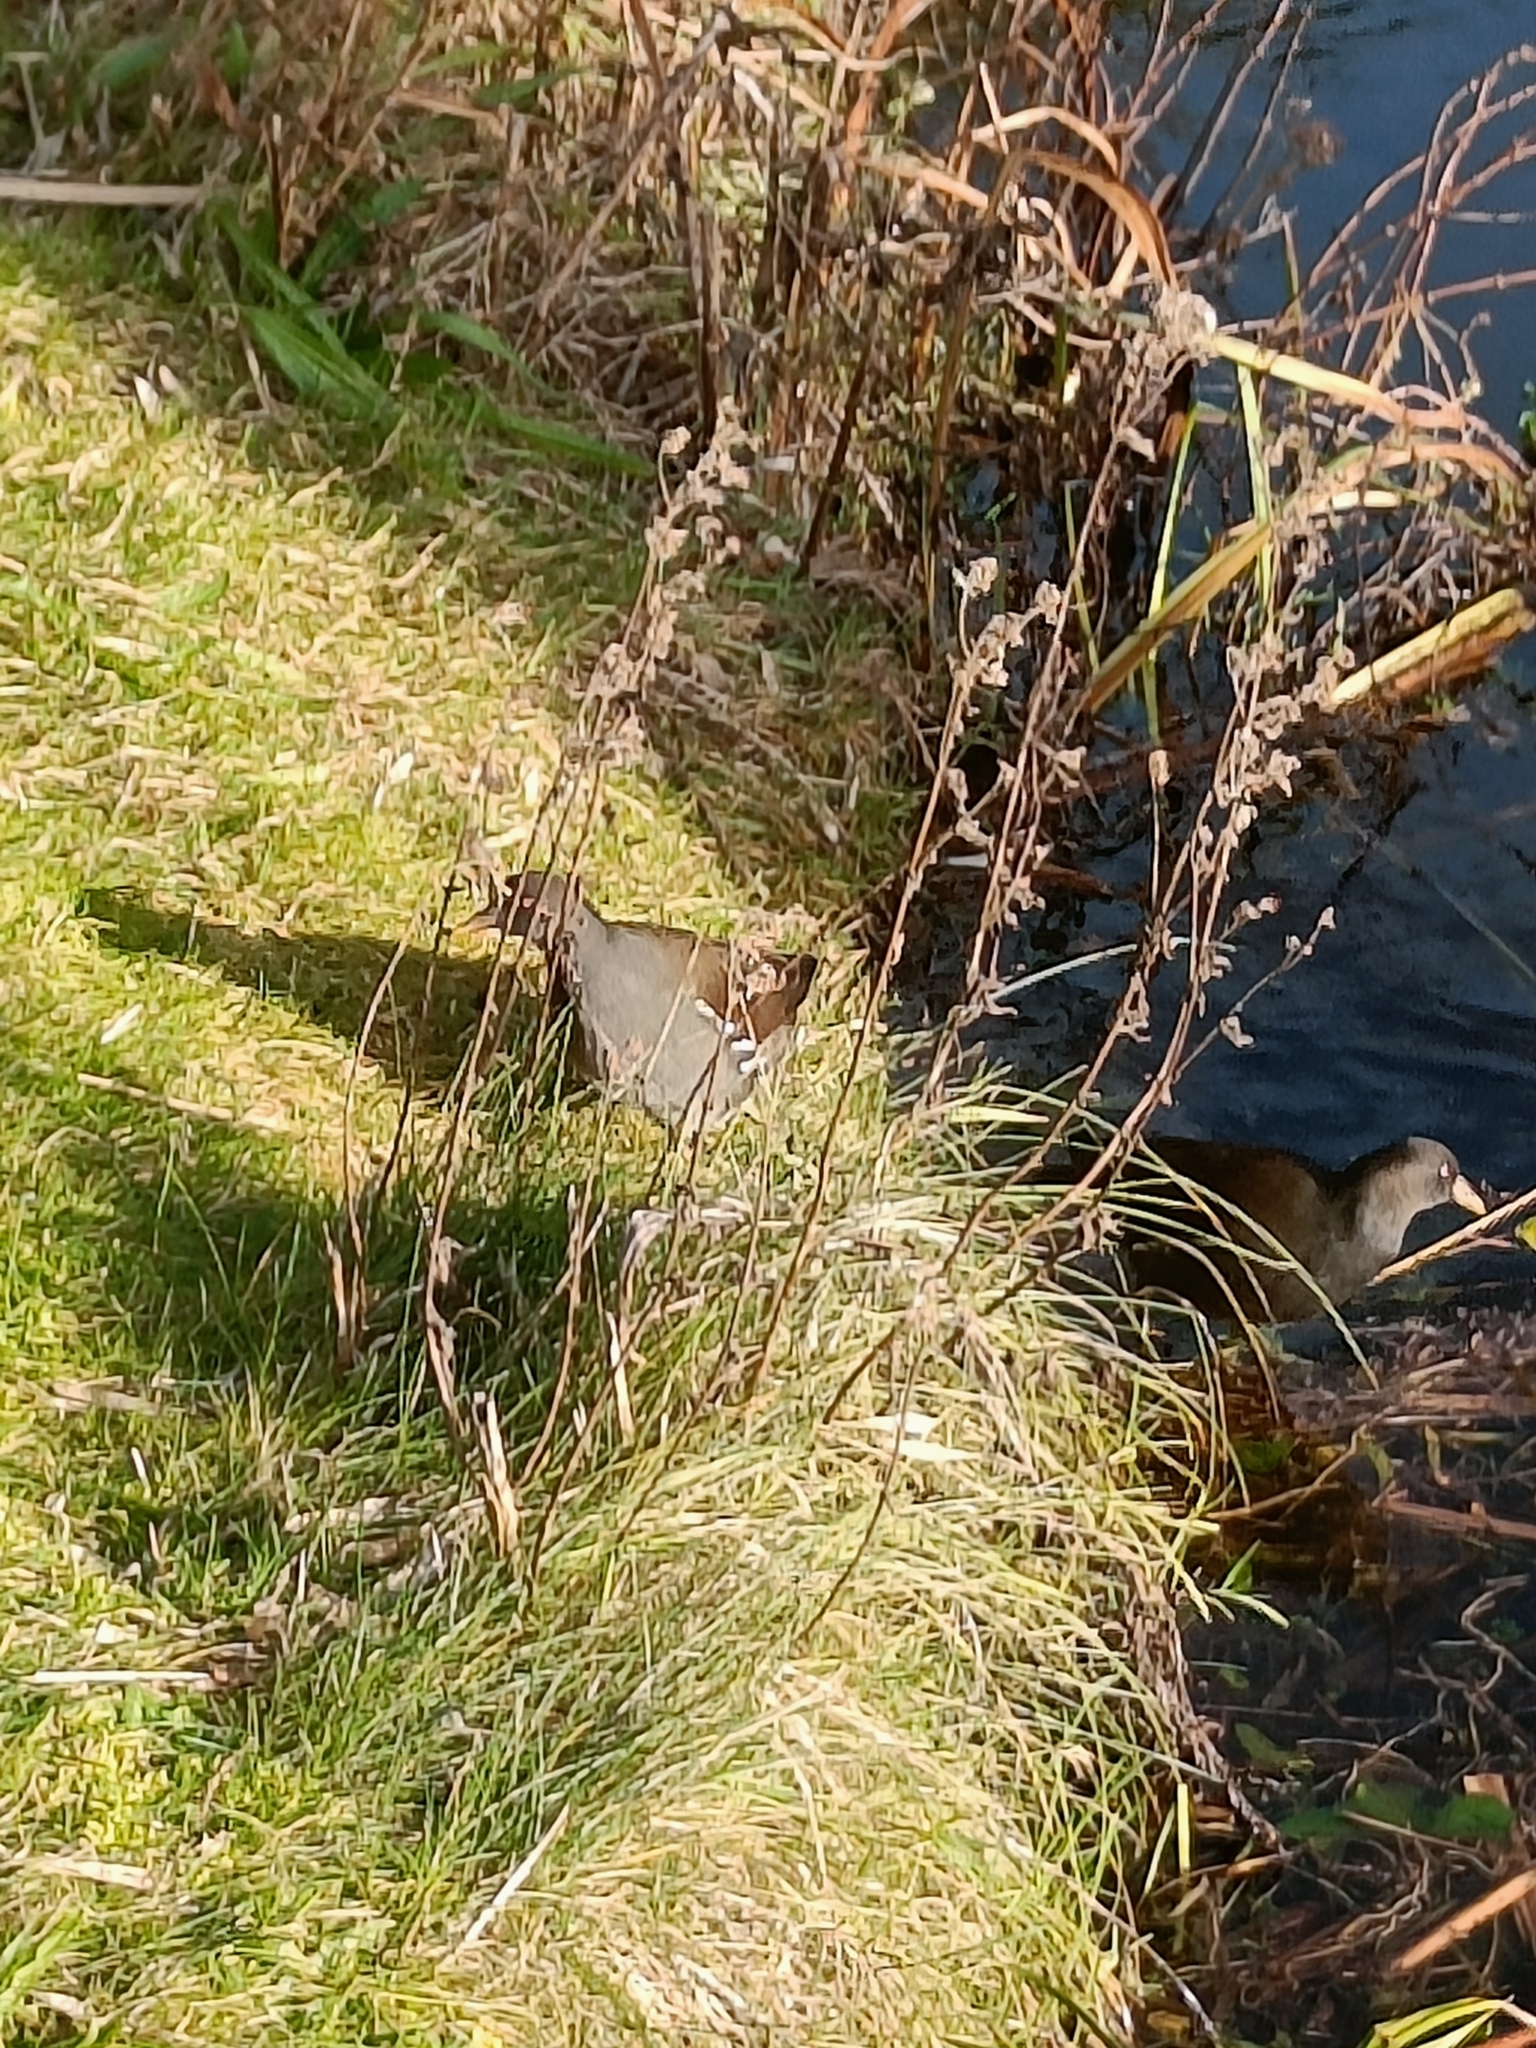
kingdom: Animalia
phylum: Chordata
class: Aves
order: Gruiformes
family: Rallidae
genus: Gallinula
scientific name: Gallinula chloropus
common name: Common moorhen
